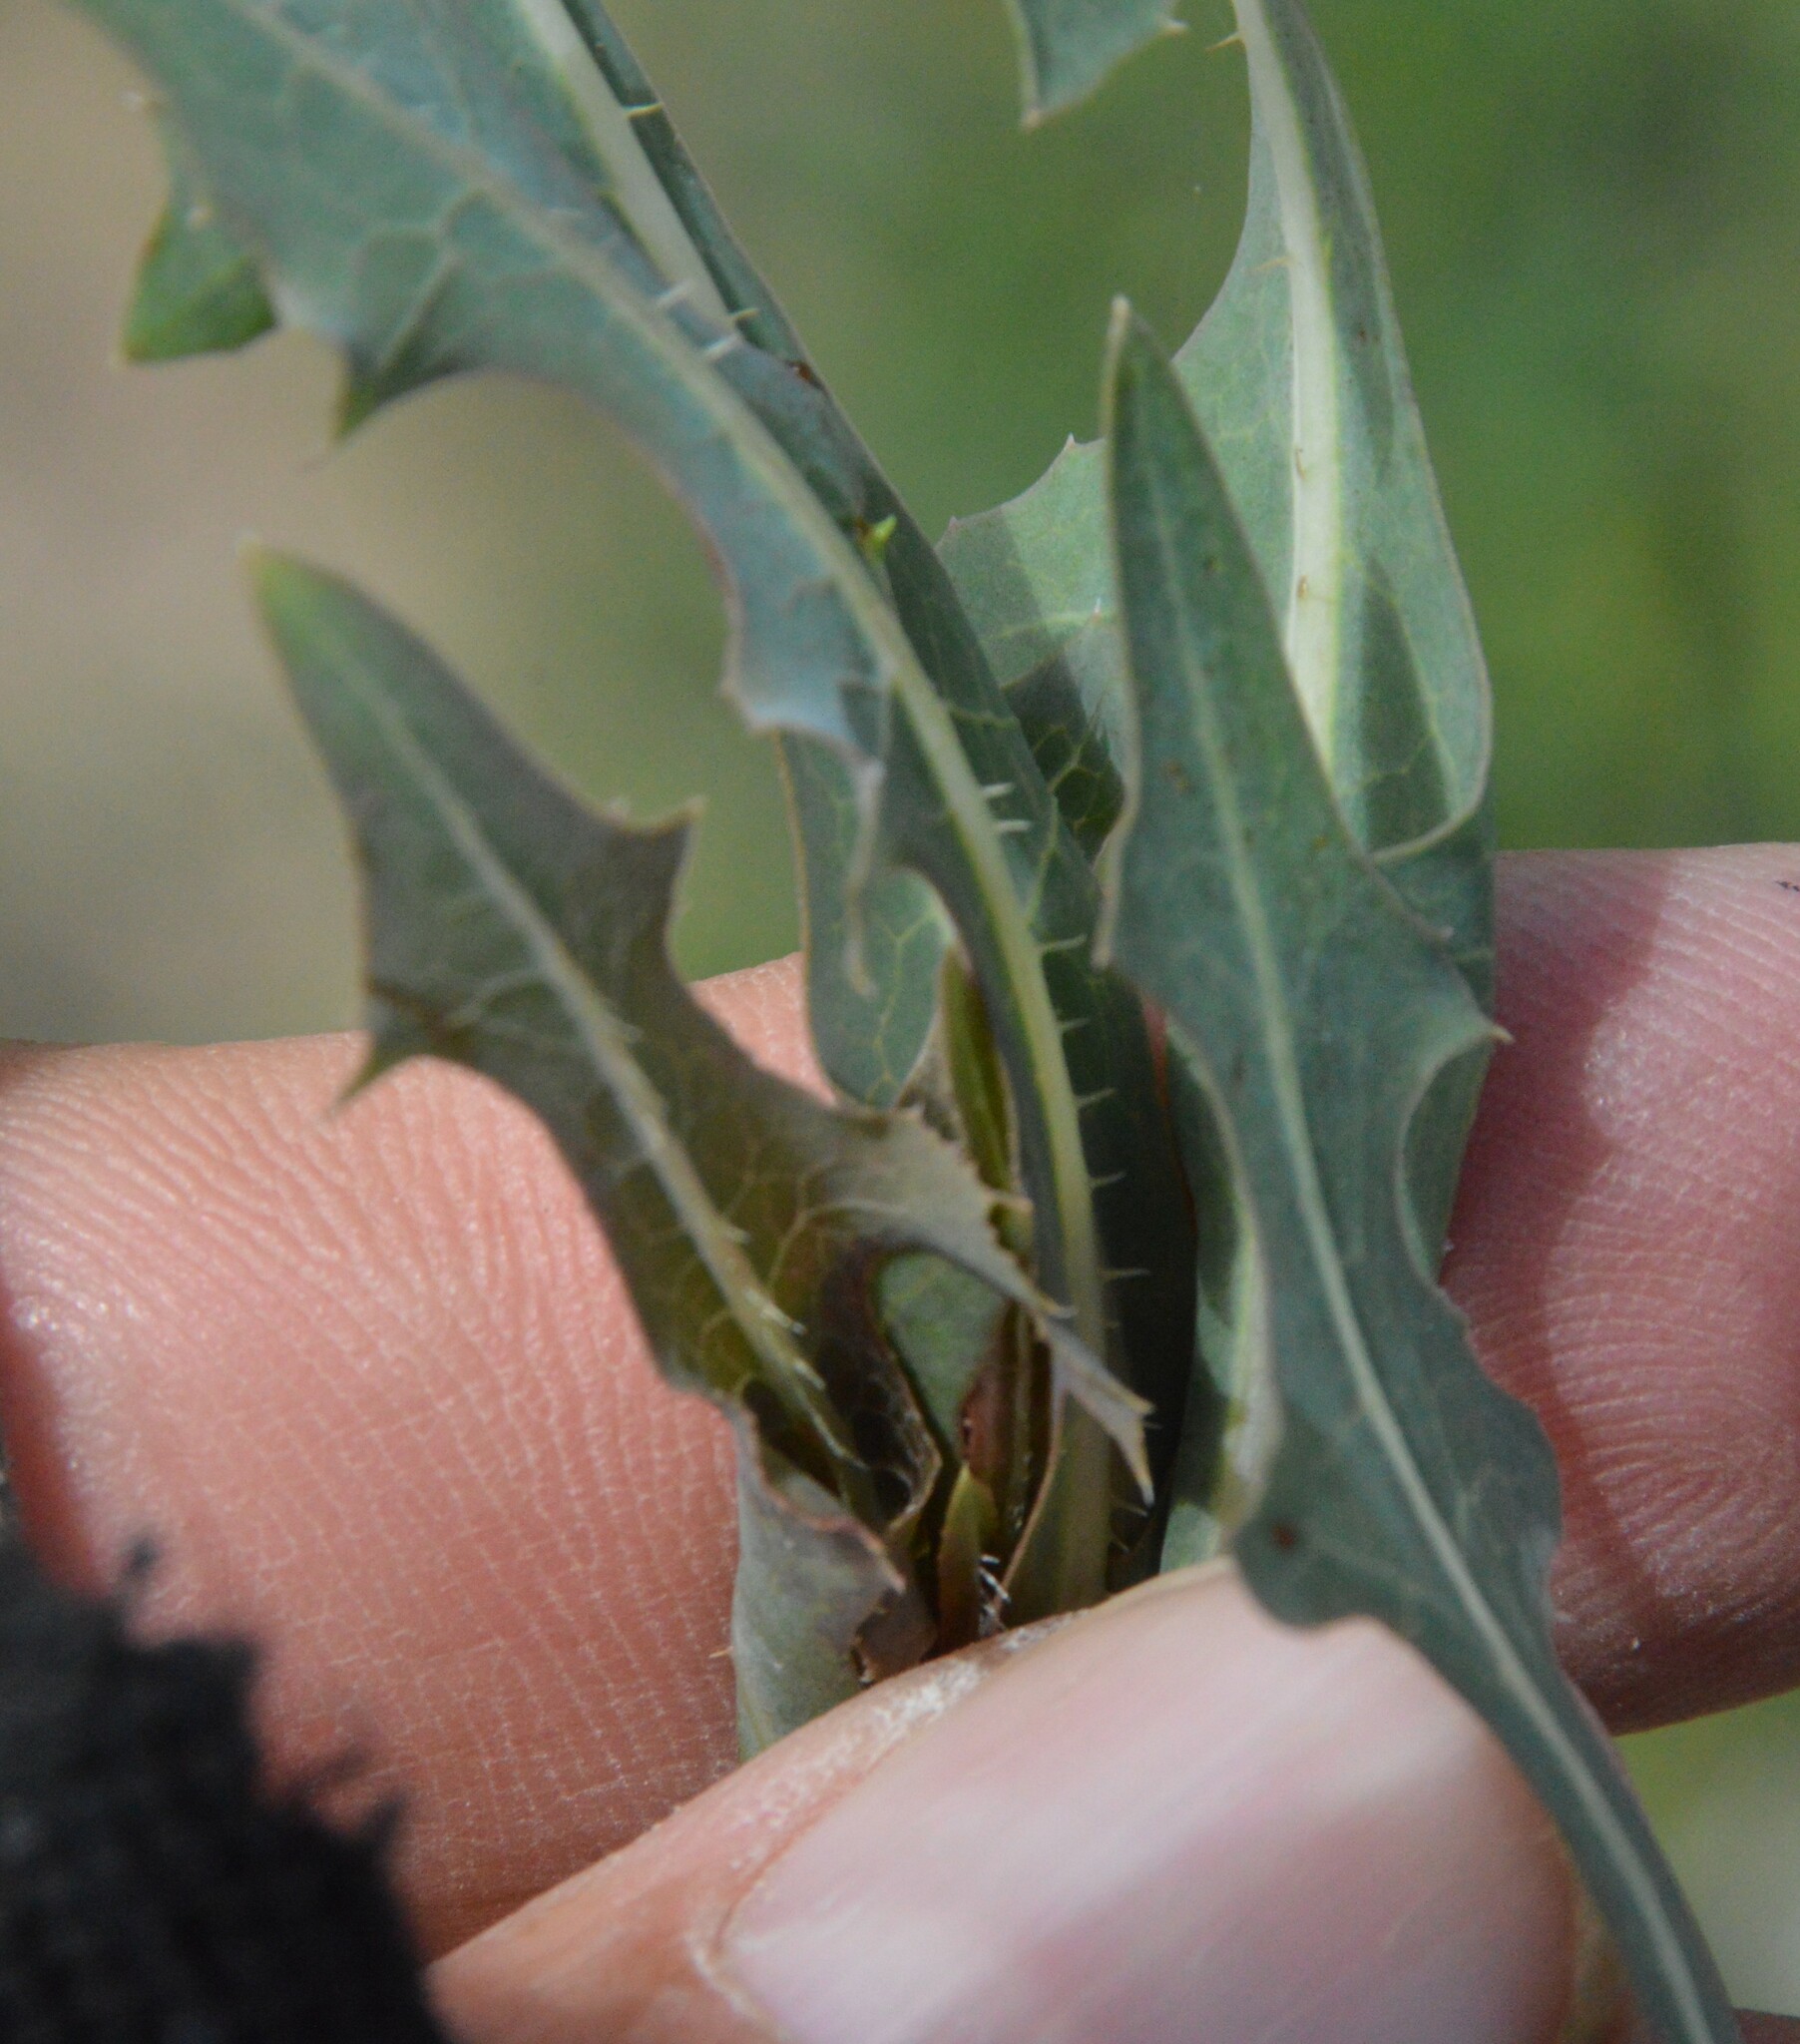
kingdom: Plantae
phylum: Tracheophyta
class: Magnoliopsida
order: Asterales
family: Asteraceae
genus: Lactuca
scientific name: Lactuca serriola
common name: Prickly lettuce
